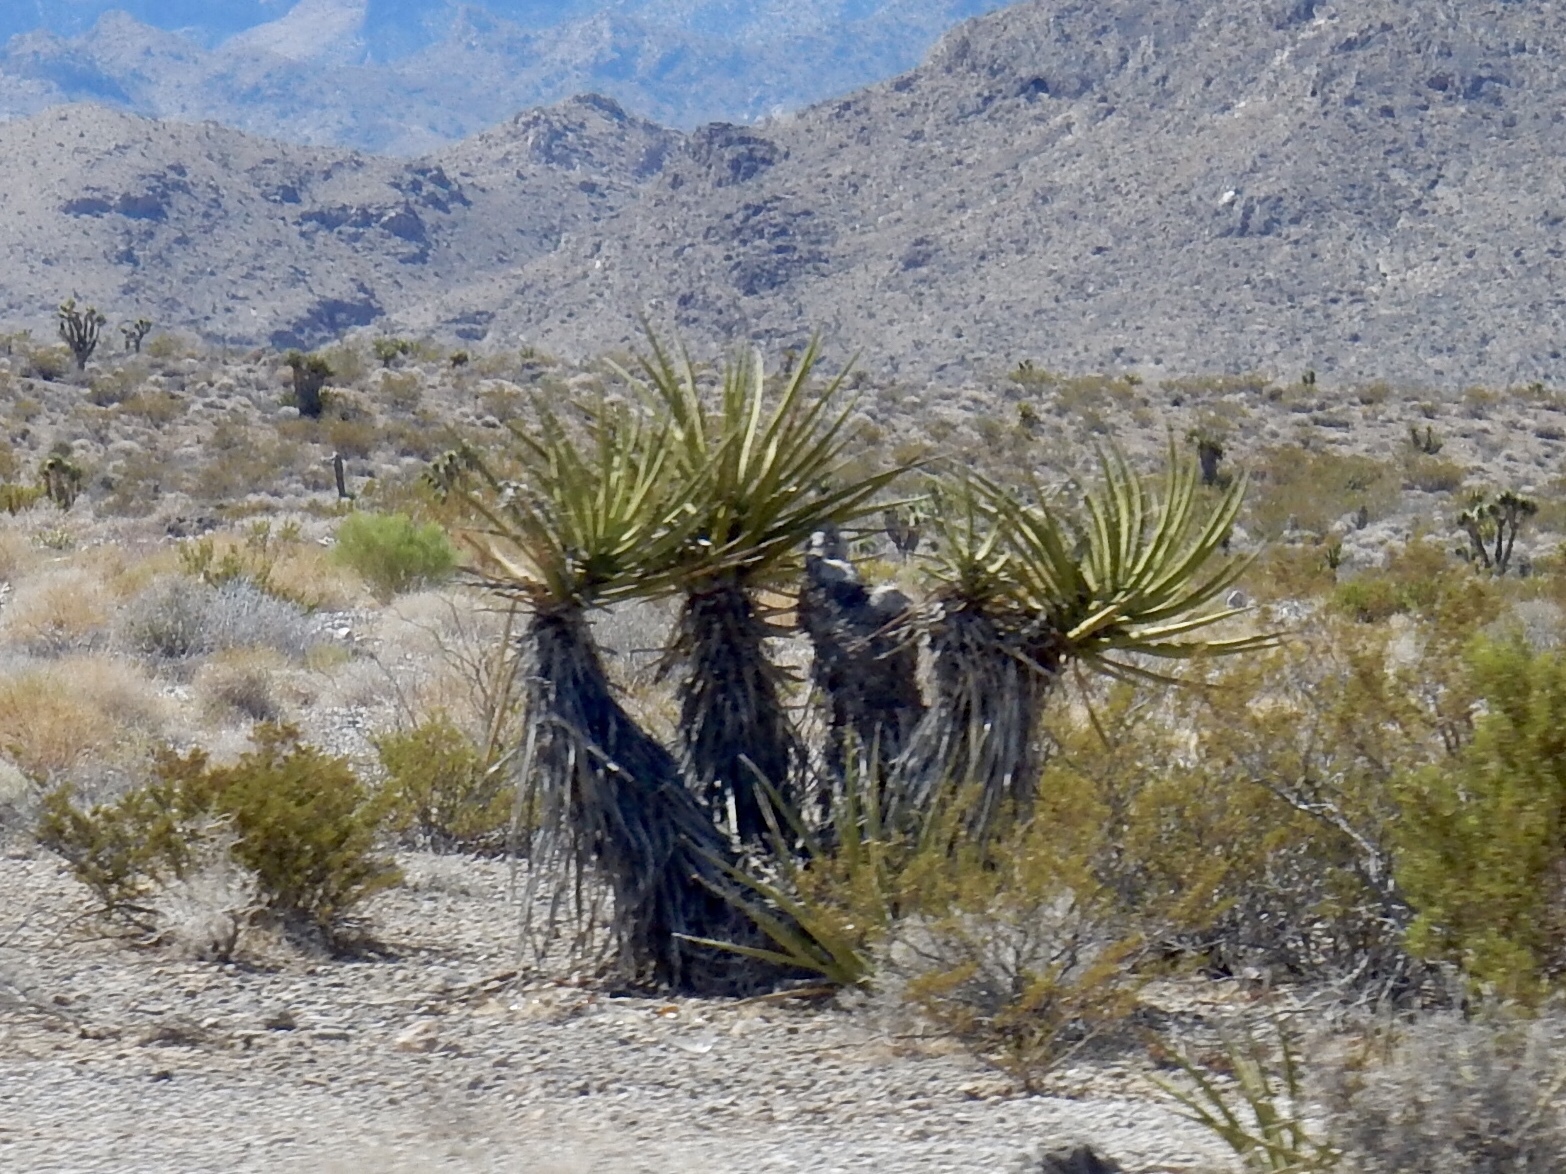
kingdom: Plantae
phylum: Tracheophyta
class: Liliopsida
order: Asparagales
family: Asparagaceae
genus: Yucca
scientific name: Yucca schidigera
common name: Mojave yucca
